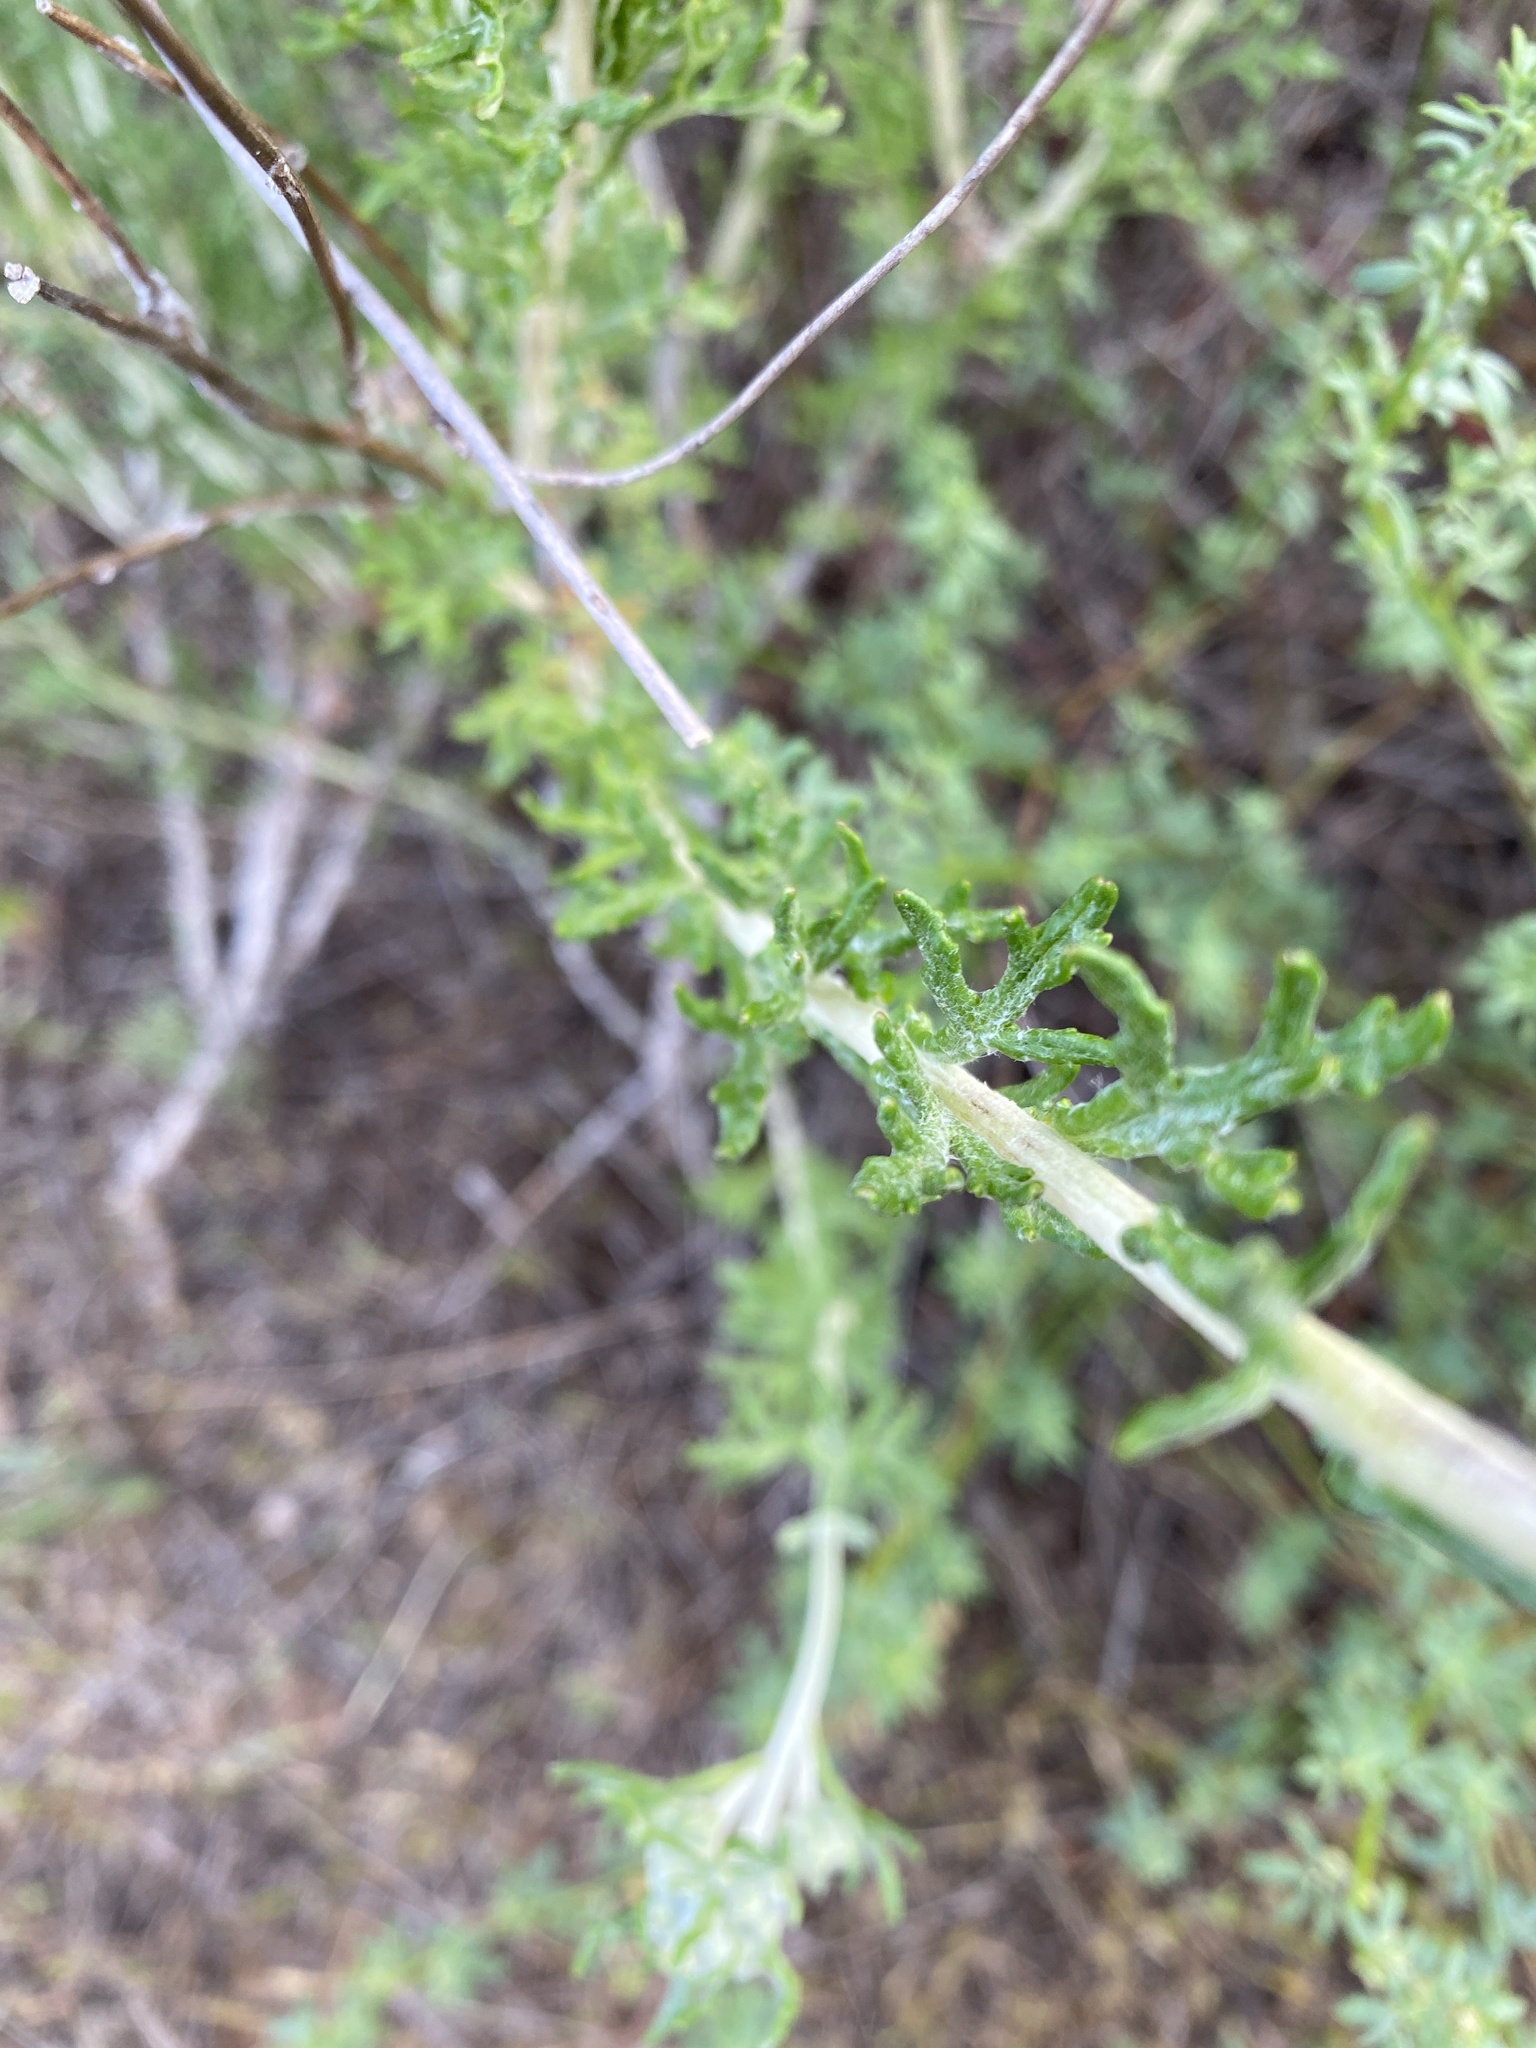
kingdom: Plantae
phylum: Tracheophyta
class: Magnoliopsida
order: Asterales
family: Asteraceae
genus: Eriophyllum
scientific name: Eriophyllum confertiflorum
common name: Golden-yarrow
